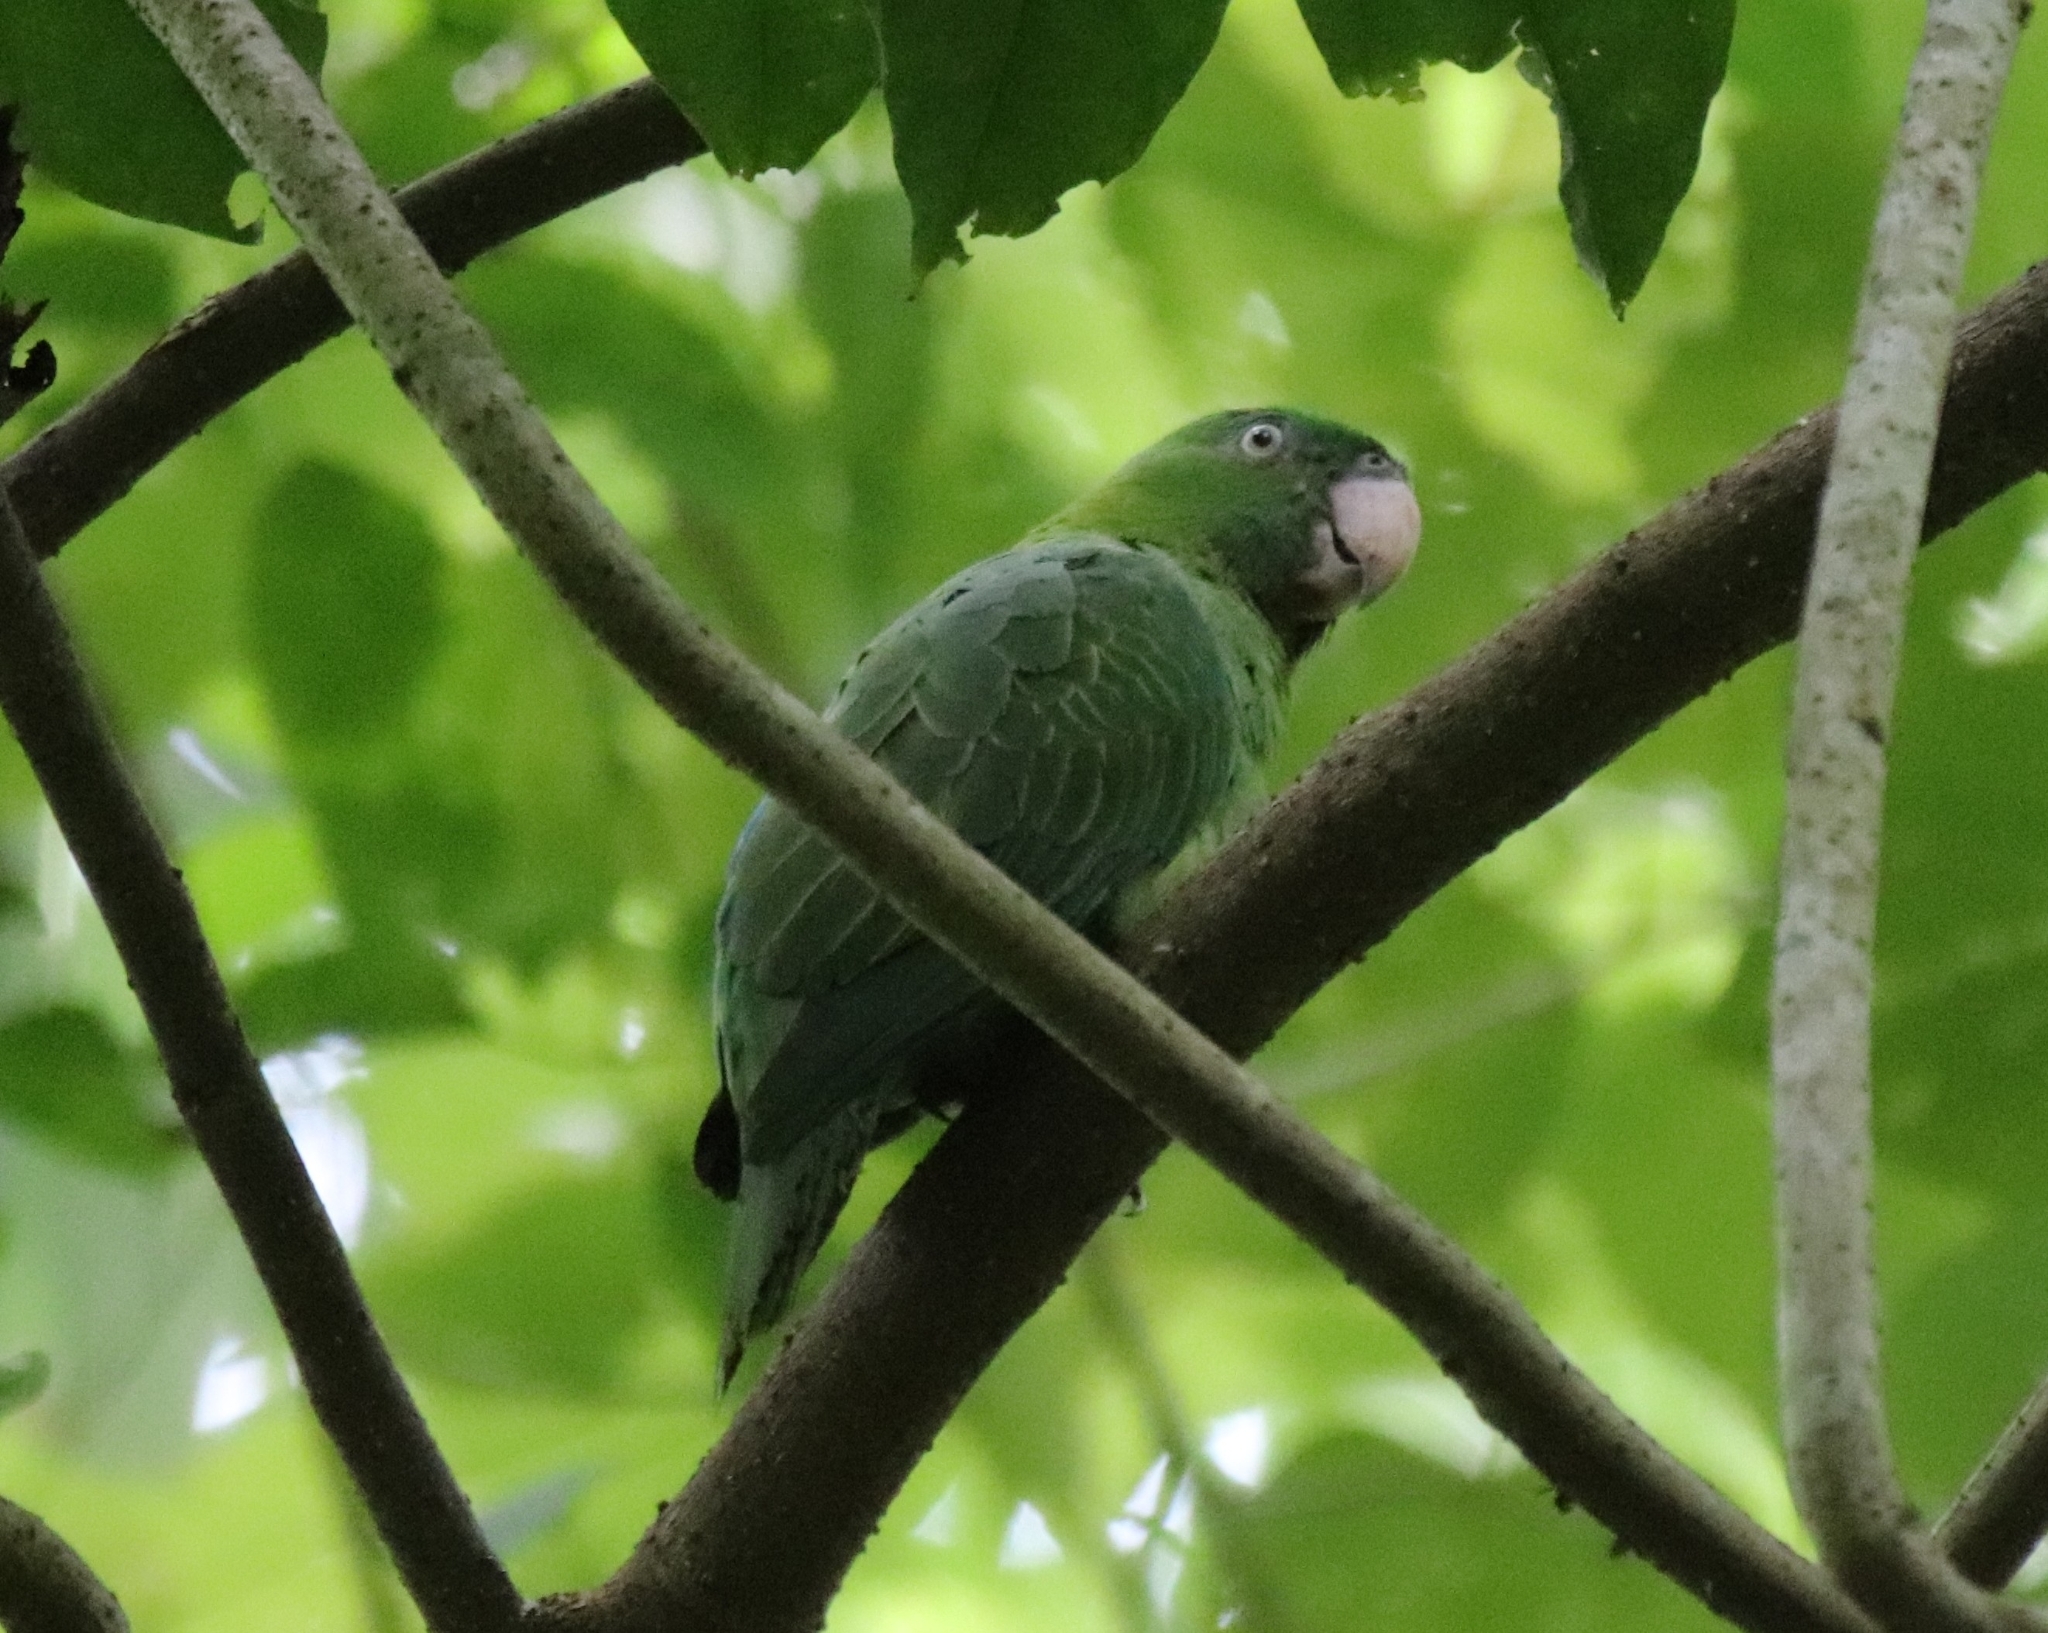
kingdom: Animalia
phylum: Chordata
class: Aves
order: Psittaciformes
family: Psittacidae
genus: Tanygnathus
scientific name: Tanygnathus sumatranus
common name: Blue-backed parrot
